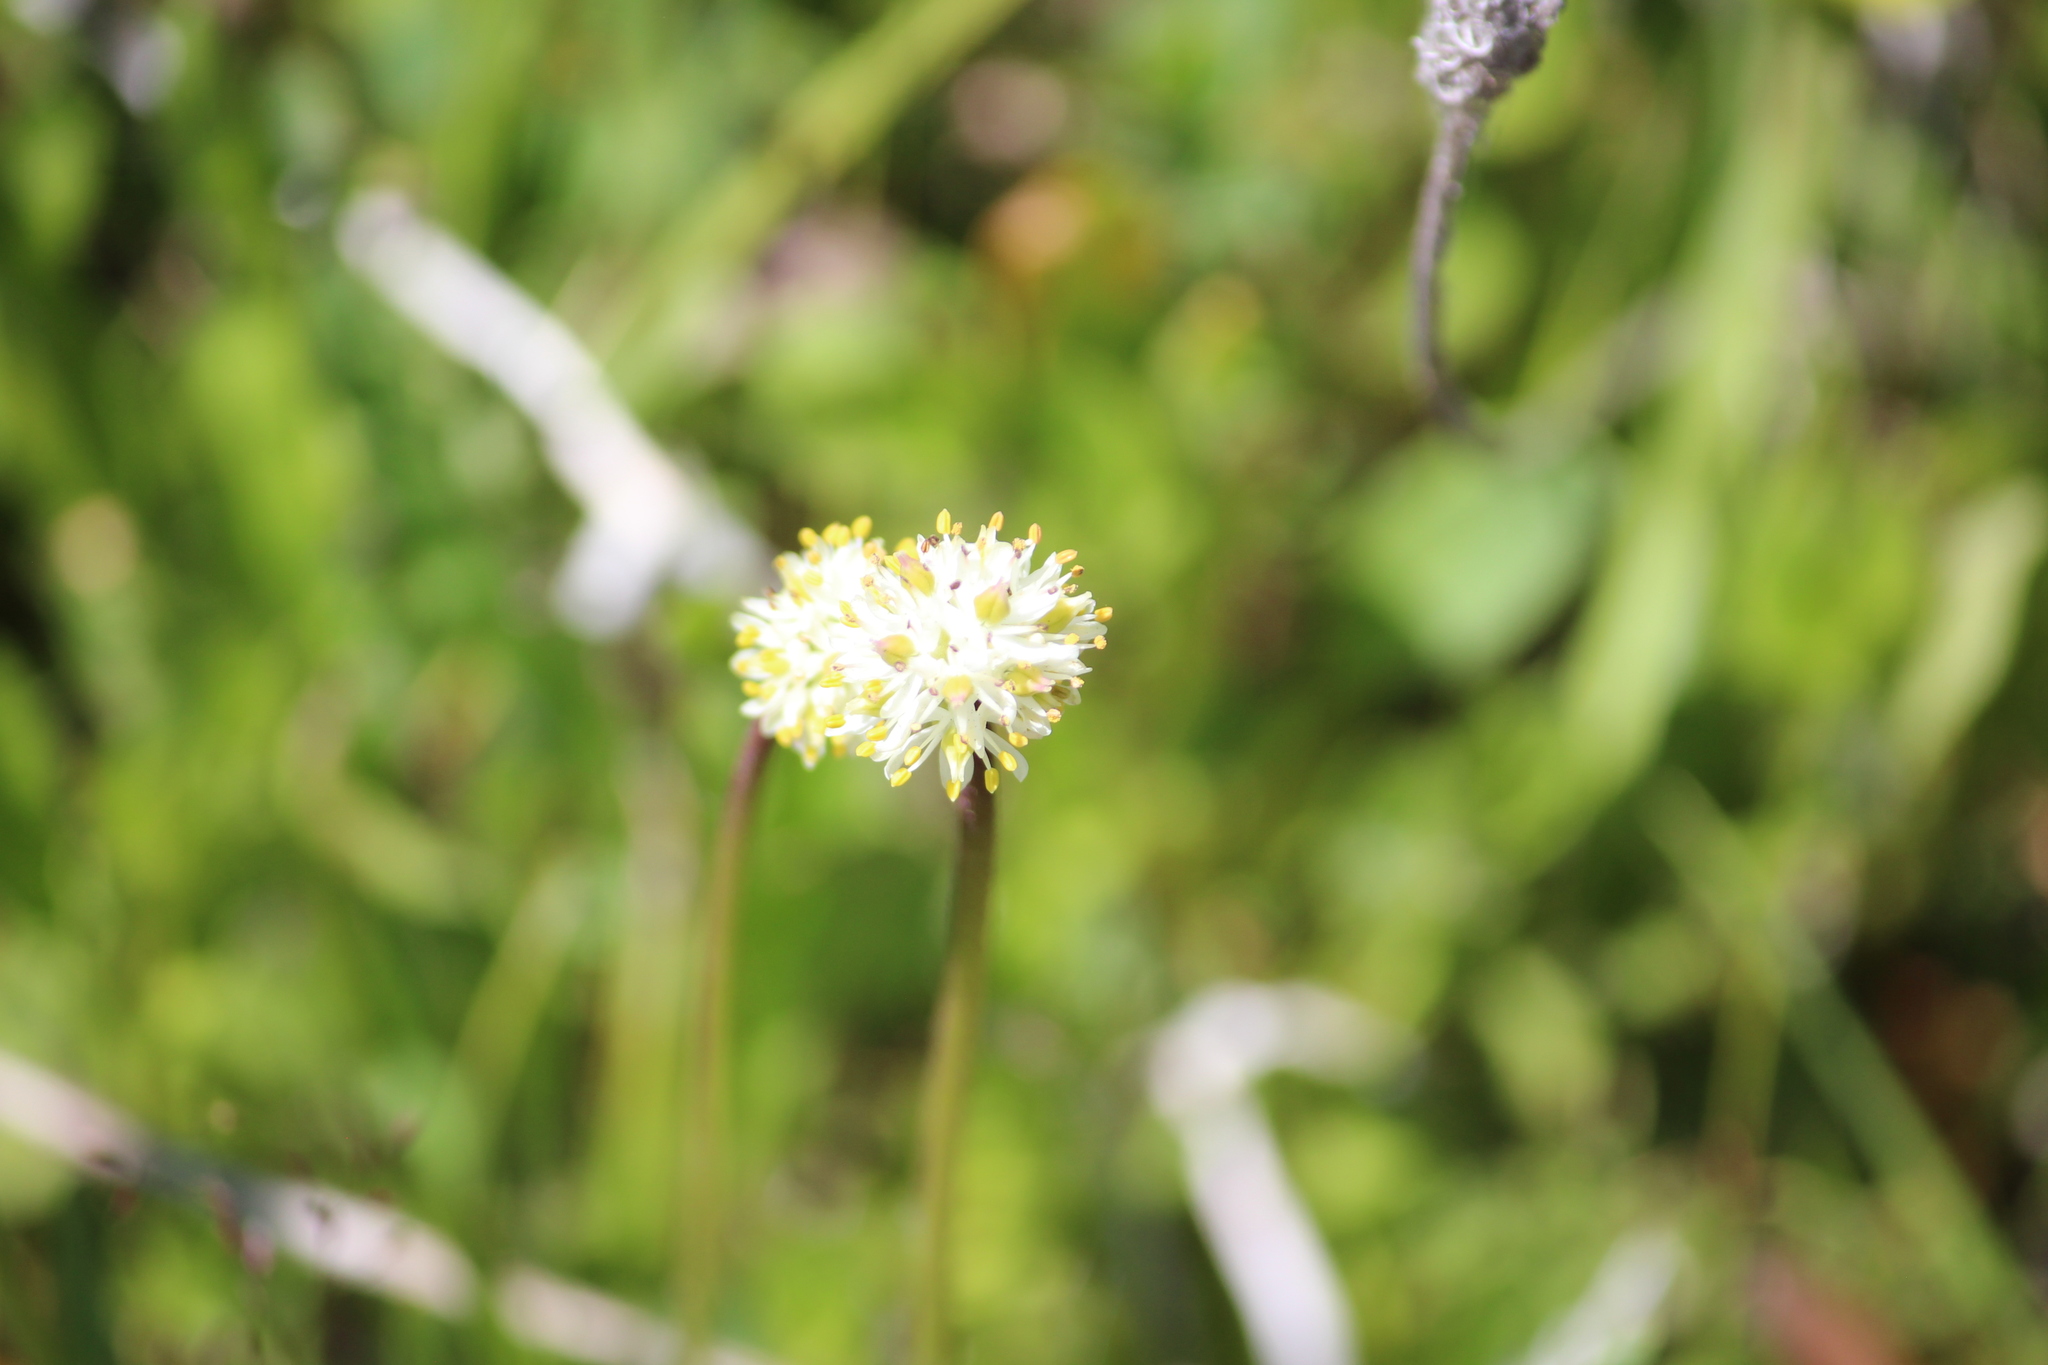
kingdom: Plantae
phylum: Tracheophyta
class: Liliopsida
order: Alismatales
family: Tofieldiaceae
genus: Triantha
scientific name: Triantha occidentalis
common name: Western false asphodel
